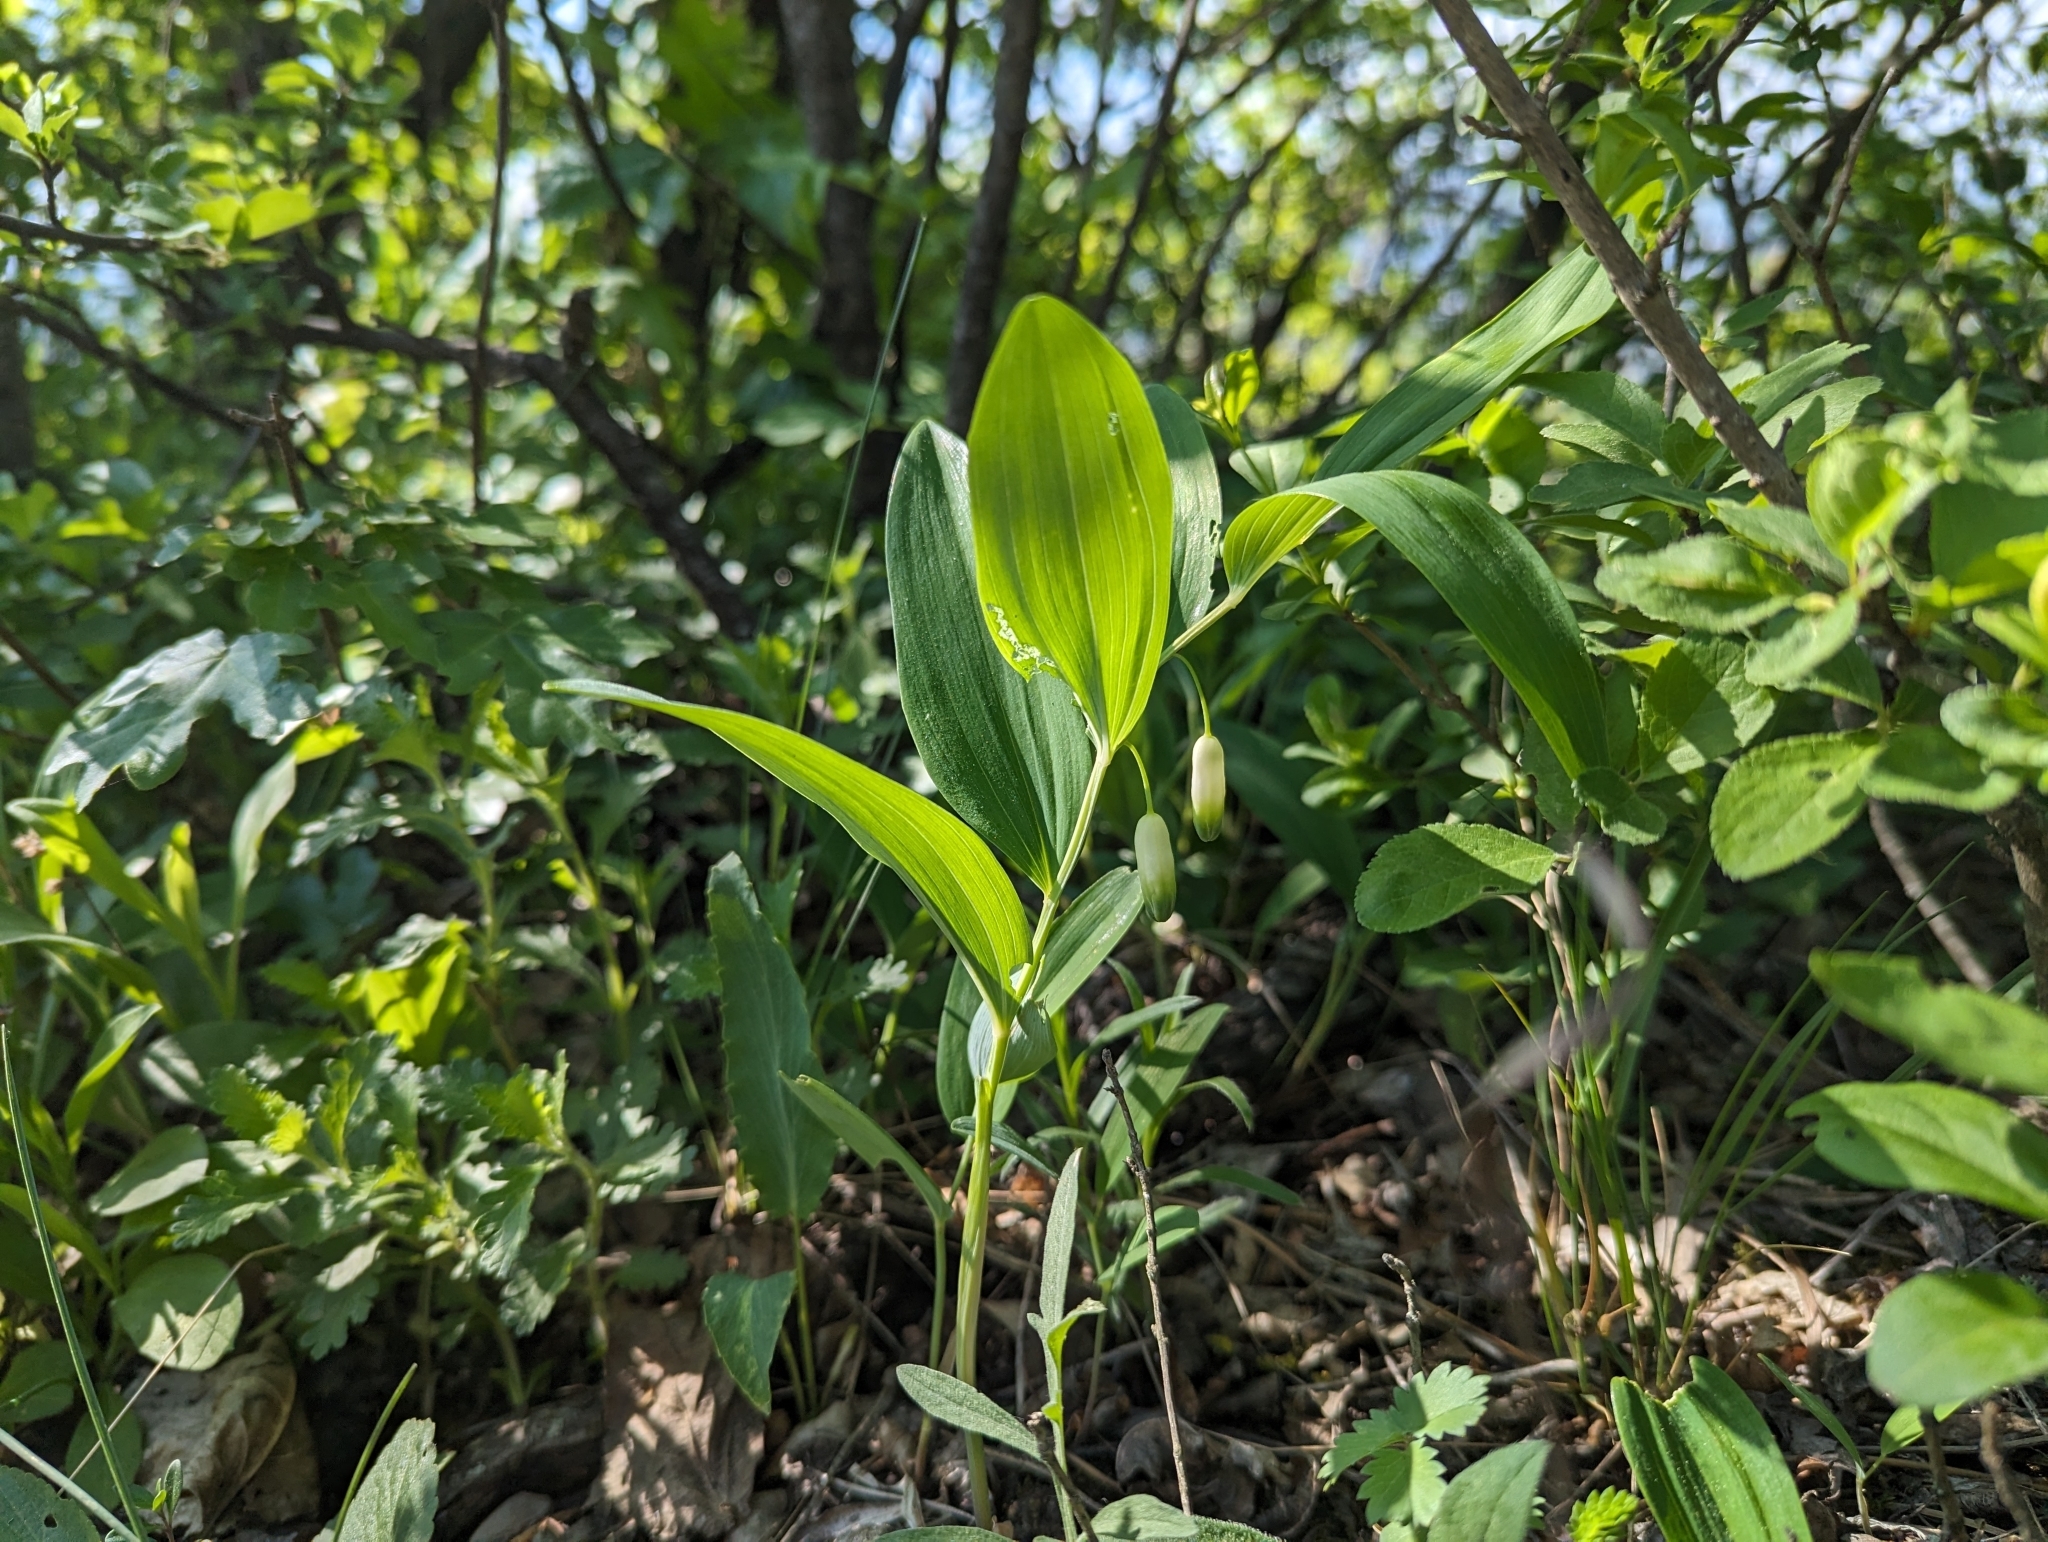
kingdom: Plantae
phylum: Tracheophyta
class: Liliopsida
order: Asparagales
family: Asparagaceae
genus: Polygonatum
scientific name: Polygonatum odoratum
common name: Angular solomon's-seal
